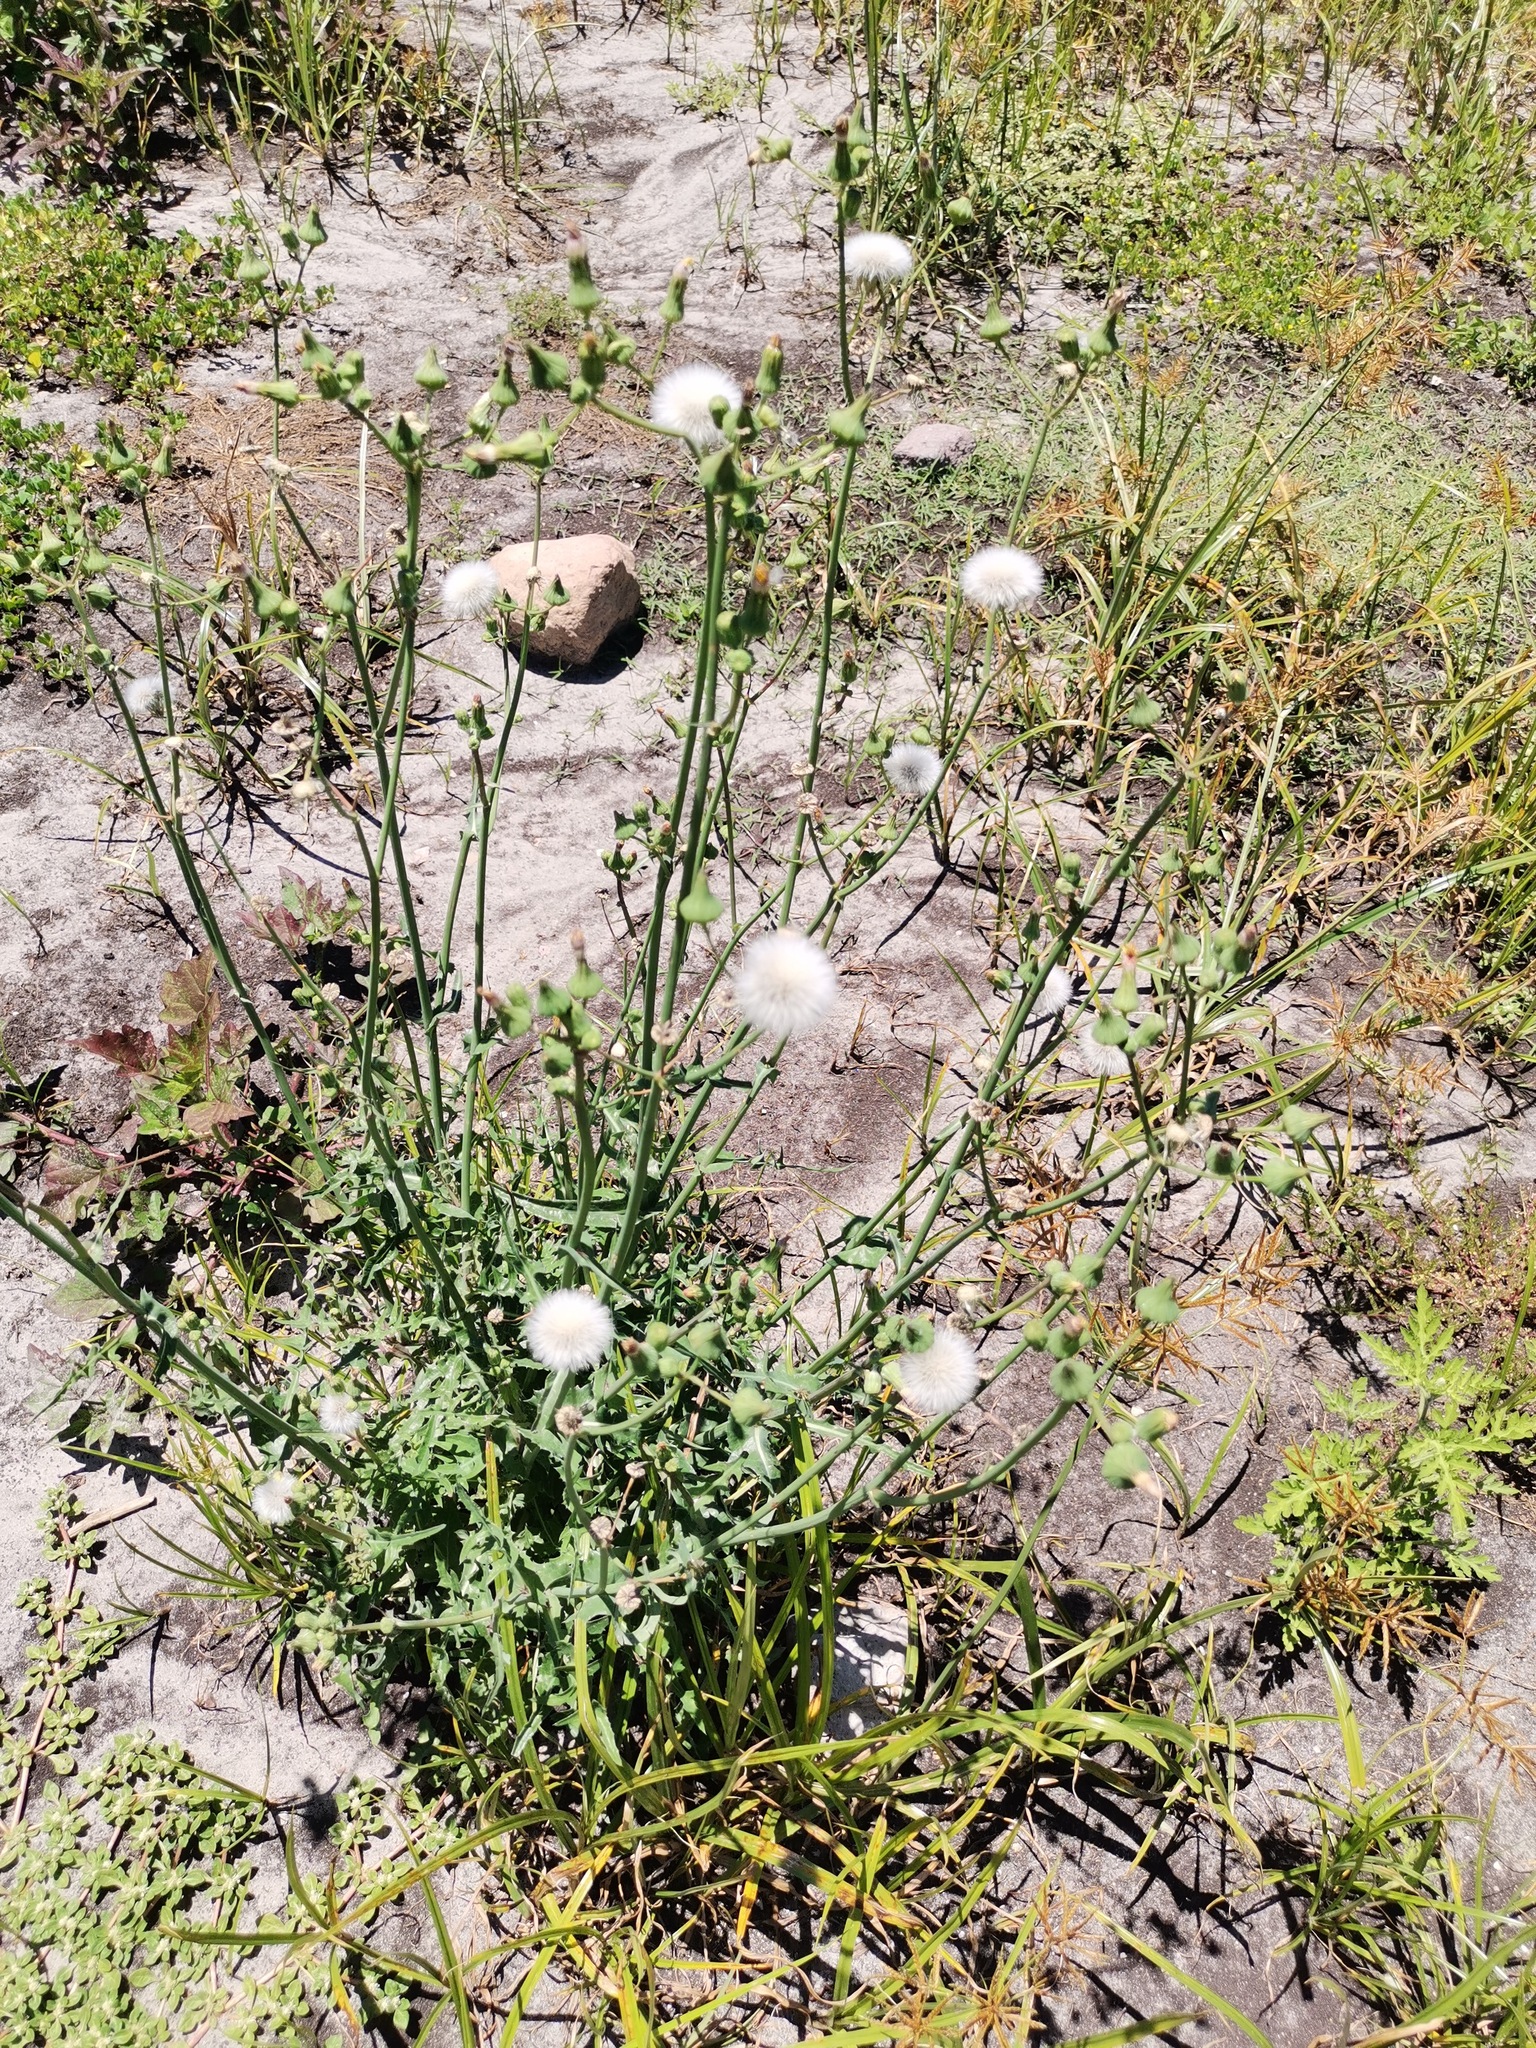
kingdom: Plantae
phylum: Tracheophyta
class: Magnoliopsida
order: Asterales
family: Asteraceae
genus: Sonchus
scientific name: Sonchus oleraceus
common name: Common sowthistle
